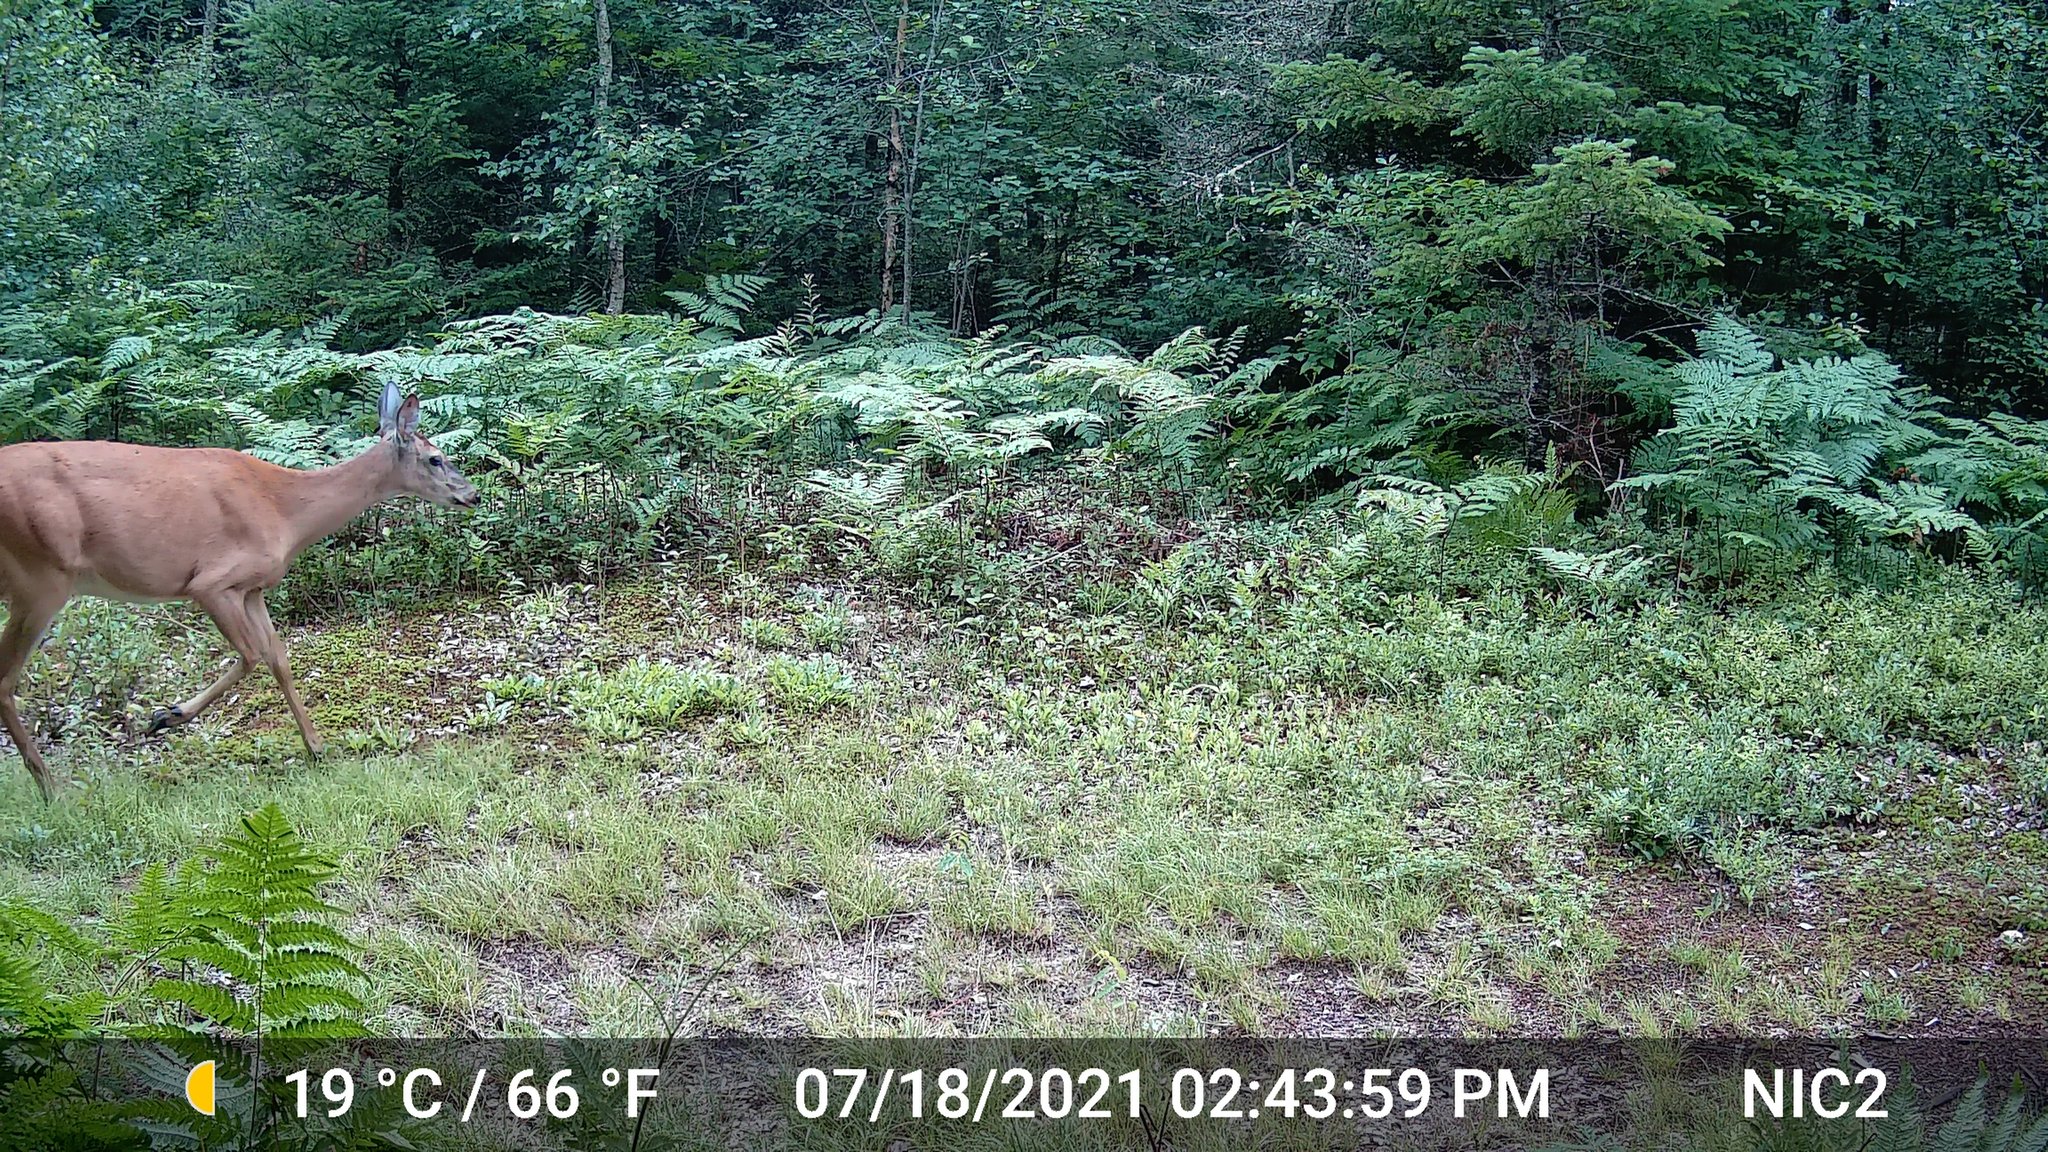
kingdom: Animalia
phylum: Chordata
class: Mammalia
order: Artiodactyla
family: Cervidae
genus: Odocoileus
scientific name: Odocoileus virginianus
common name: White-tailed deer
